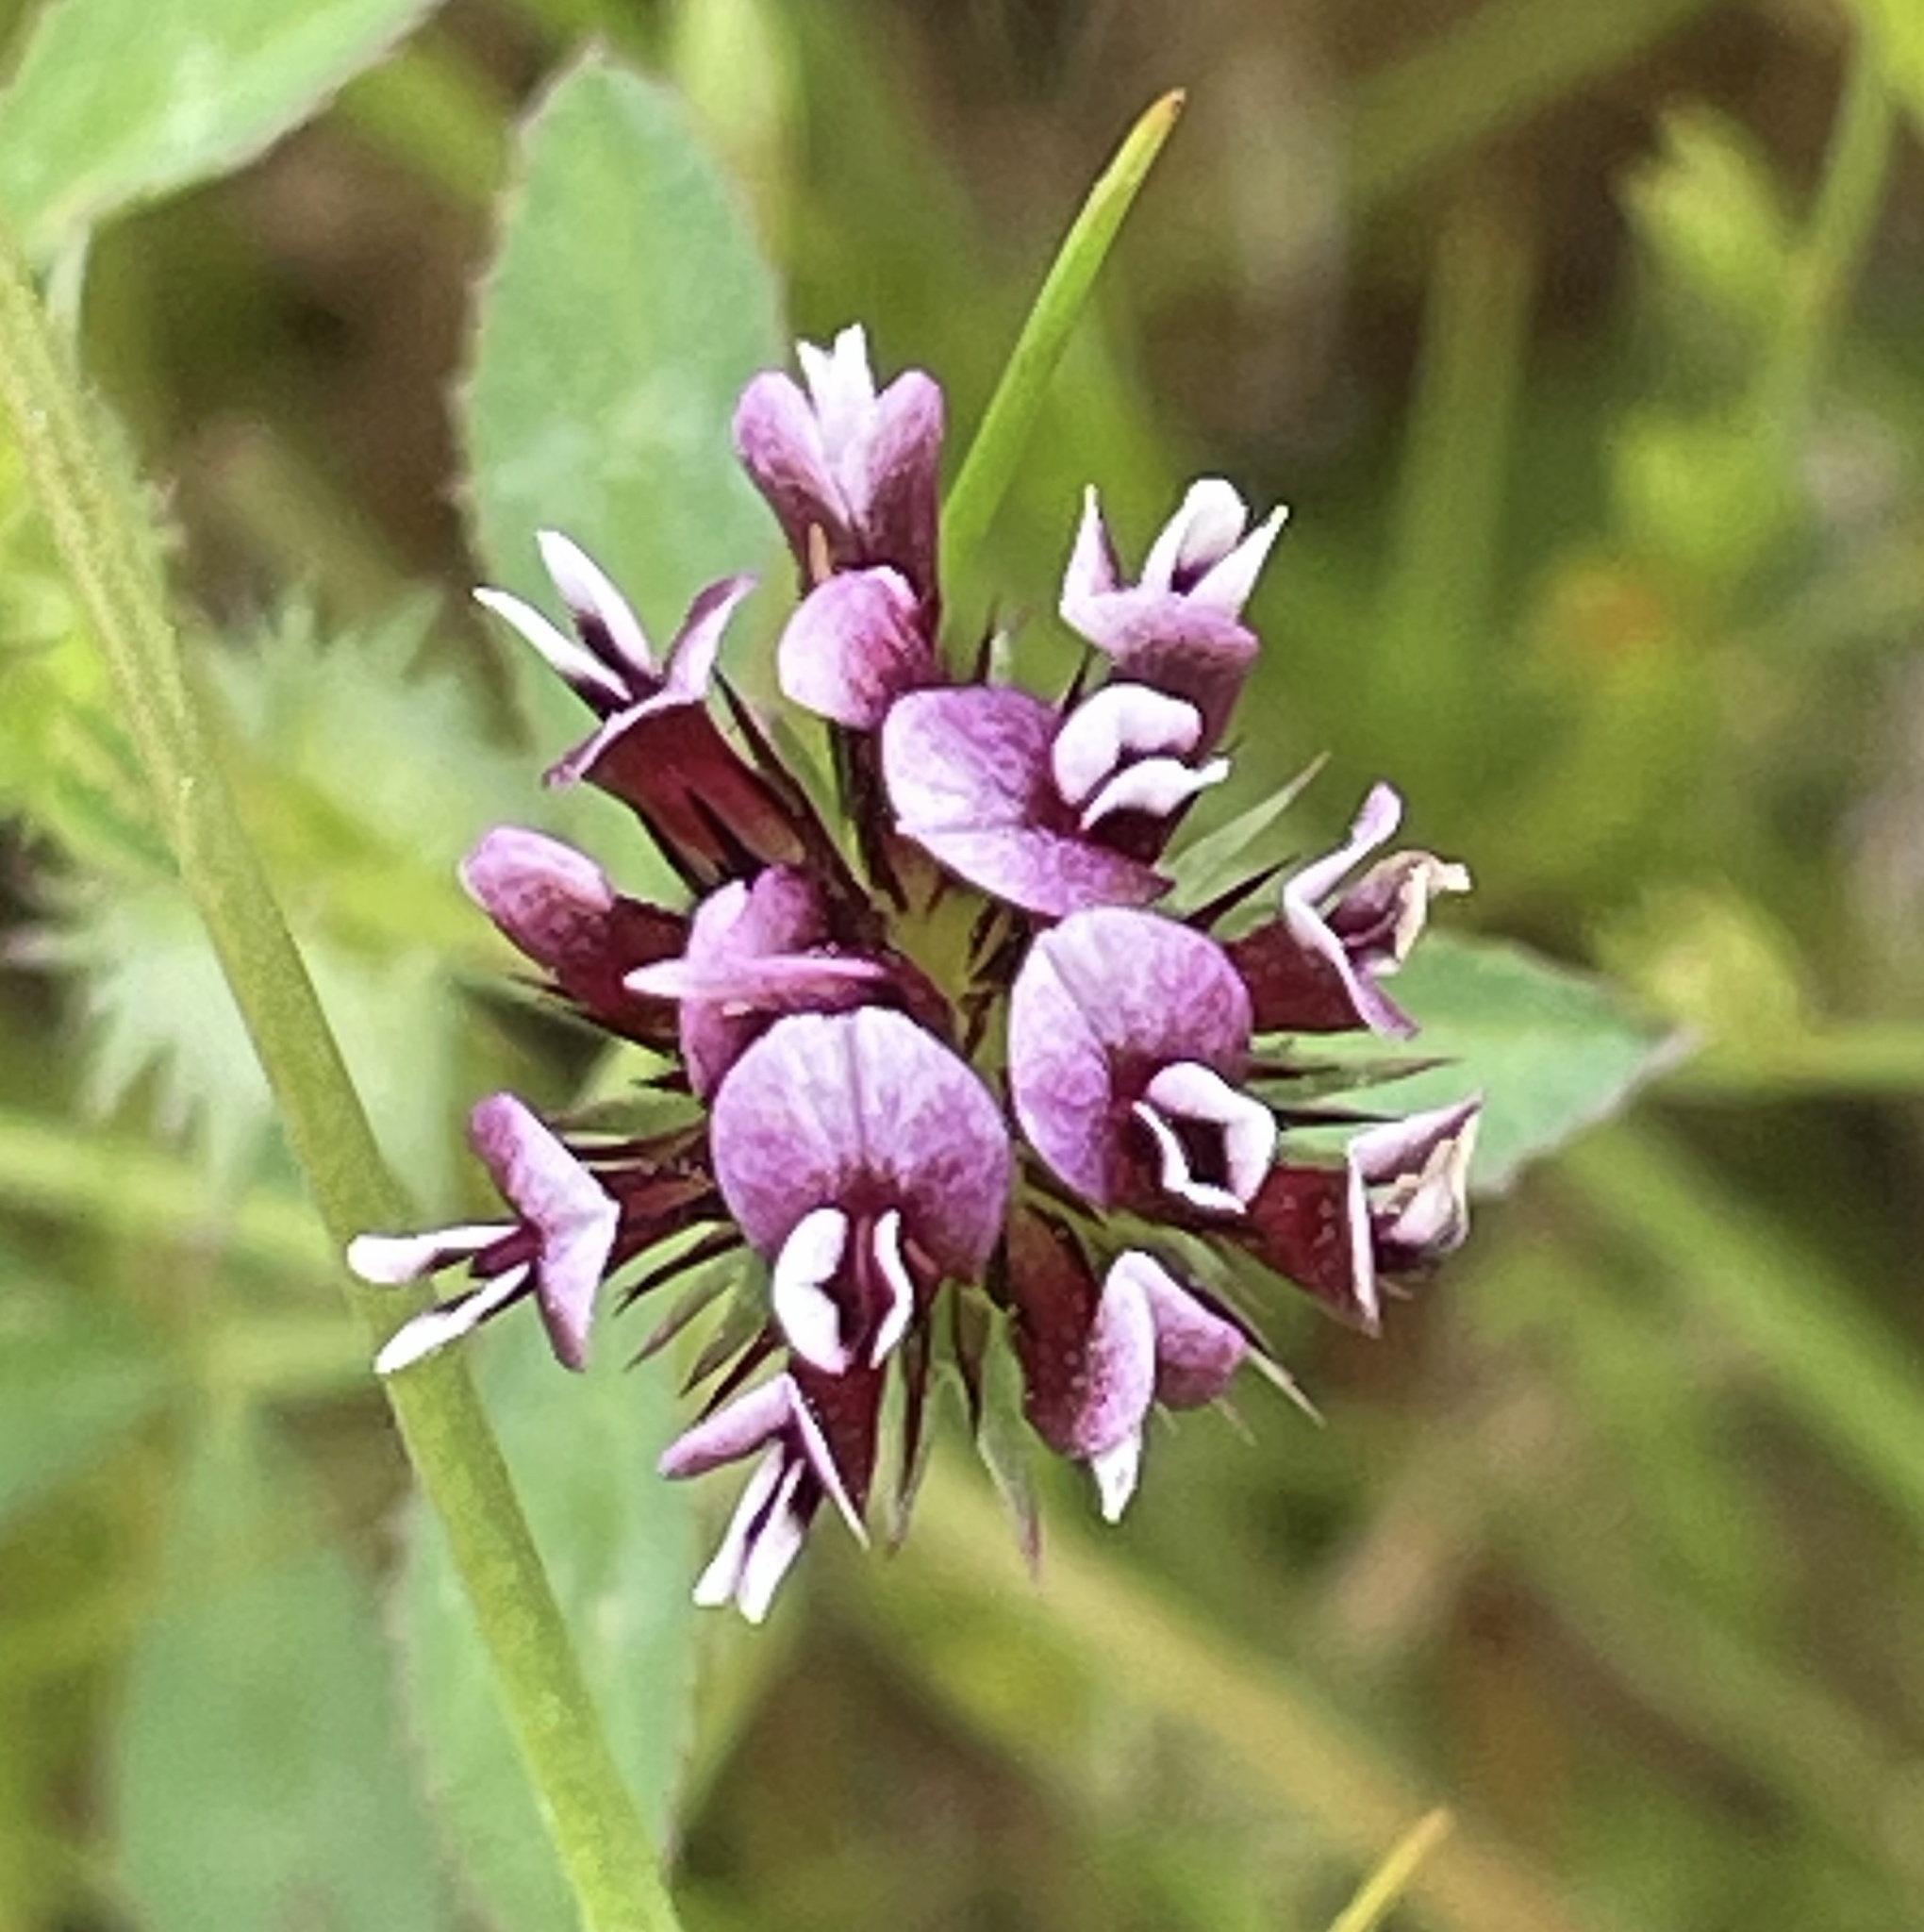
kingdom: Plantae
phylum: Tracheophyta
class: Magnoliopsida
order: Fabales
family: Fabaceae
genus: Trifolium
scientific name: Trifolium variegatum
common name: Whitetip clover
